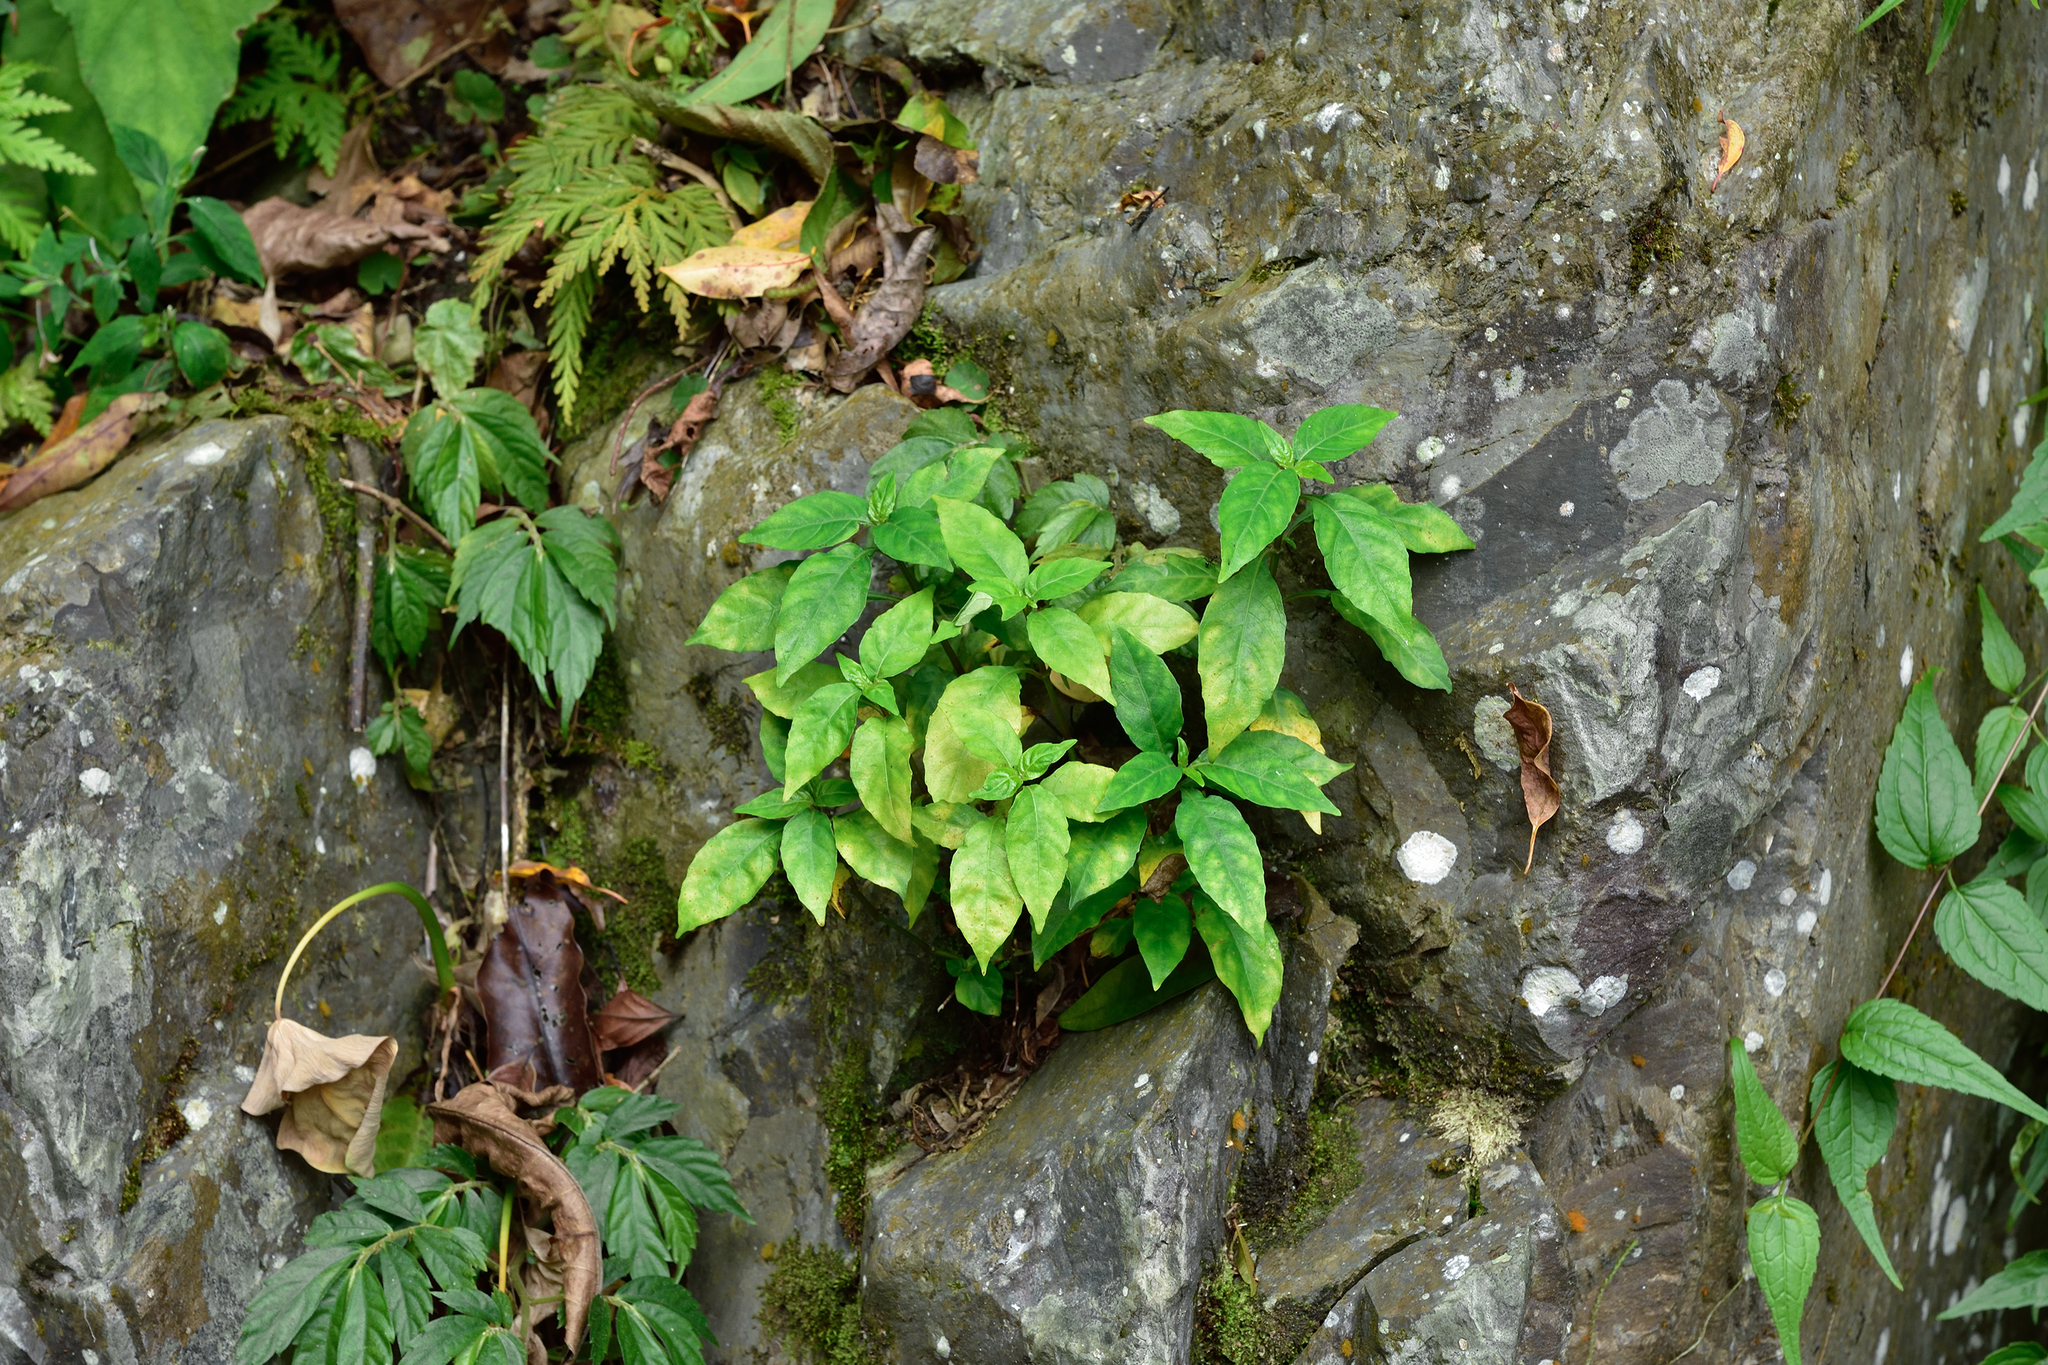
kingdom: Plantae
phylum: Tracheophyta
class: Magnoliopsida
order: Lamiales
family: Acanthaceae
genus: Dicliptera
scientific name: Dicliptera japonica
